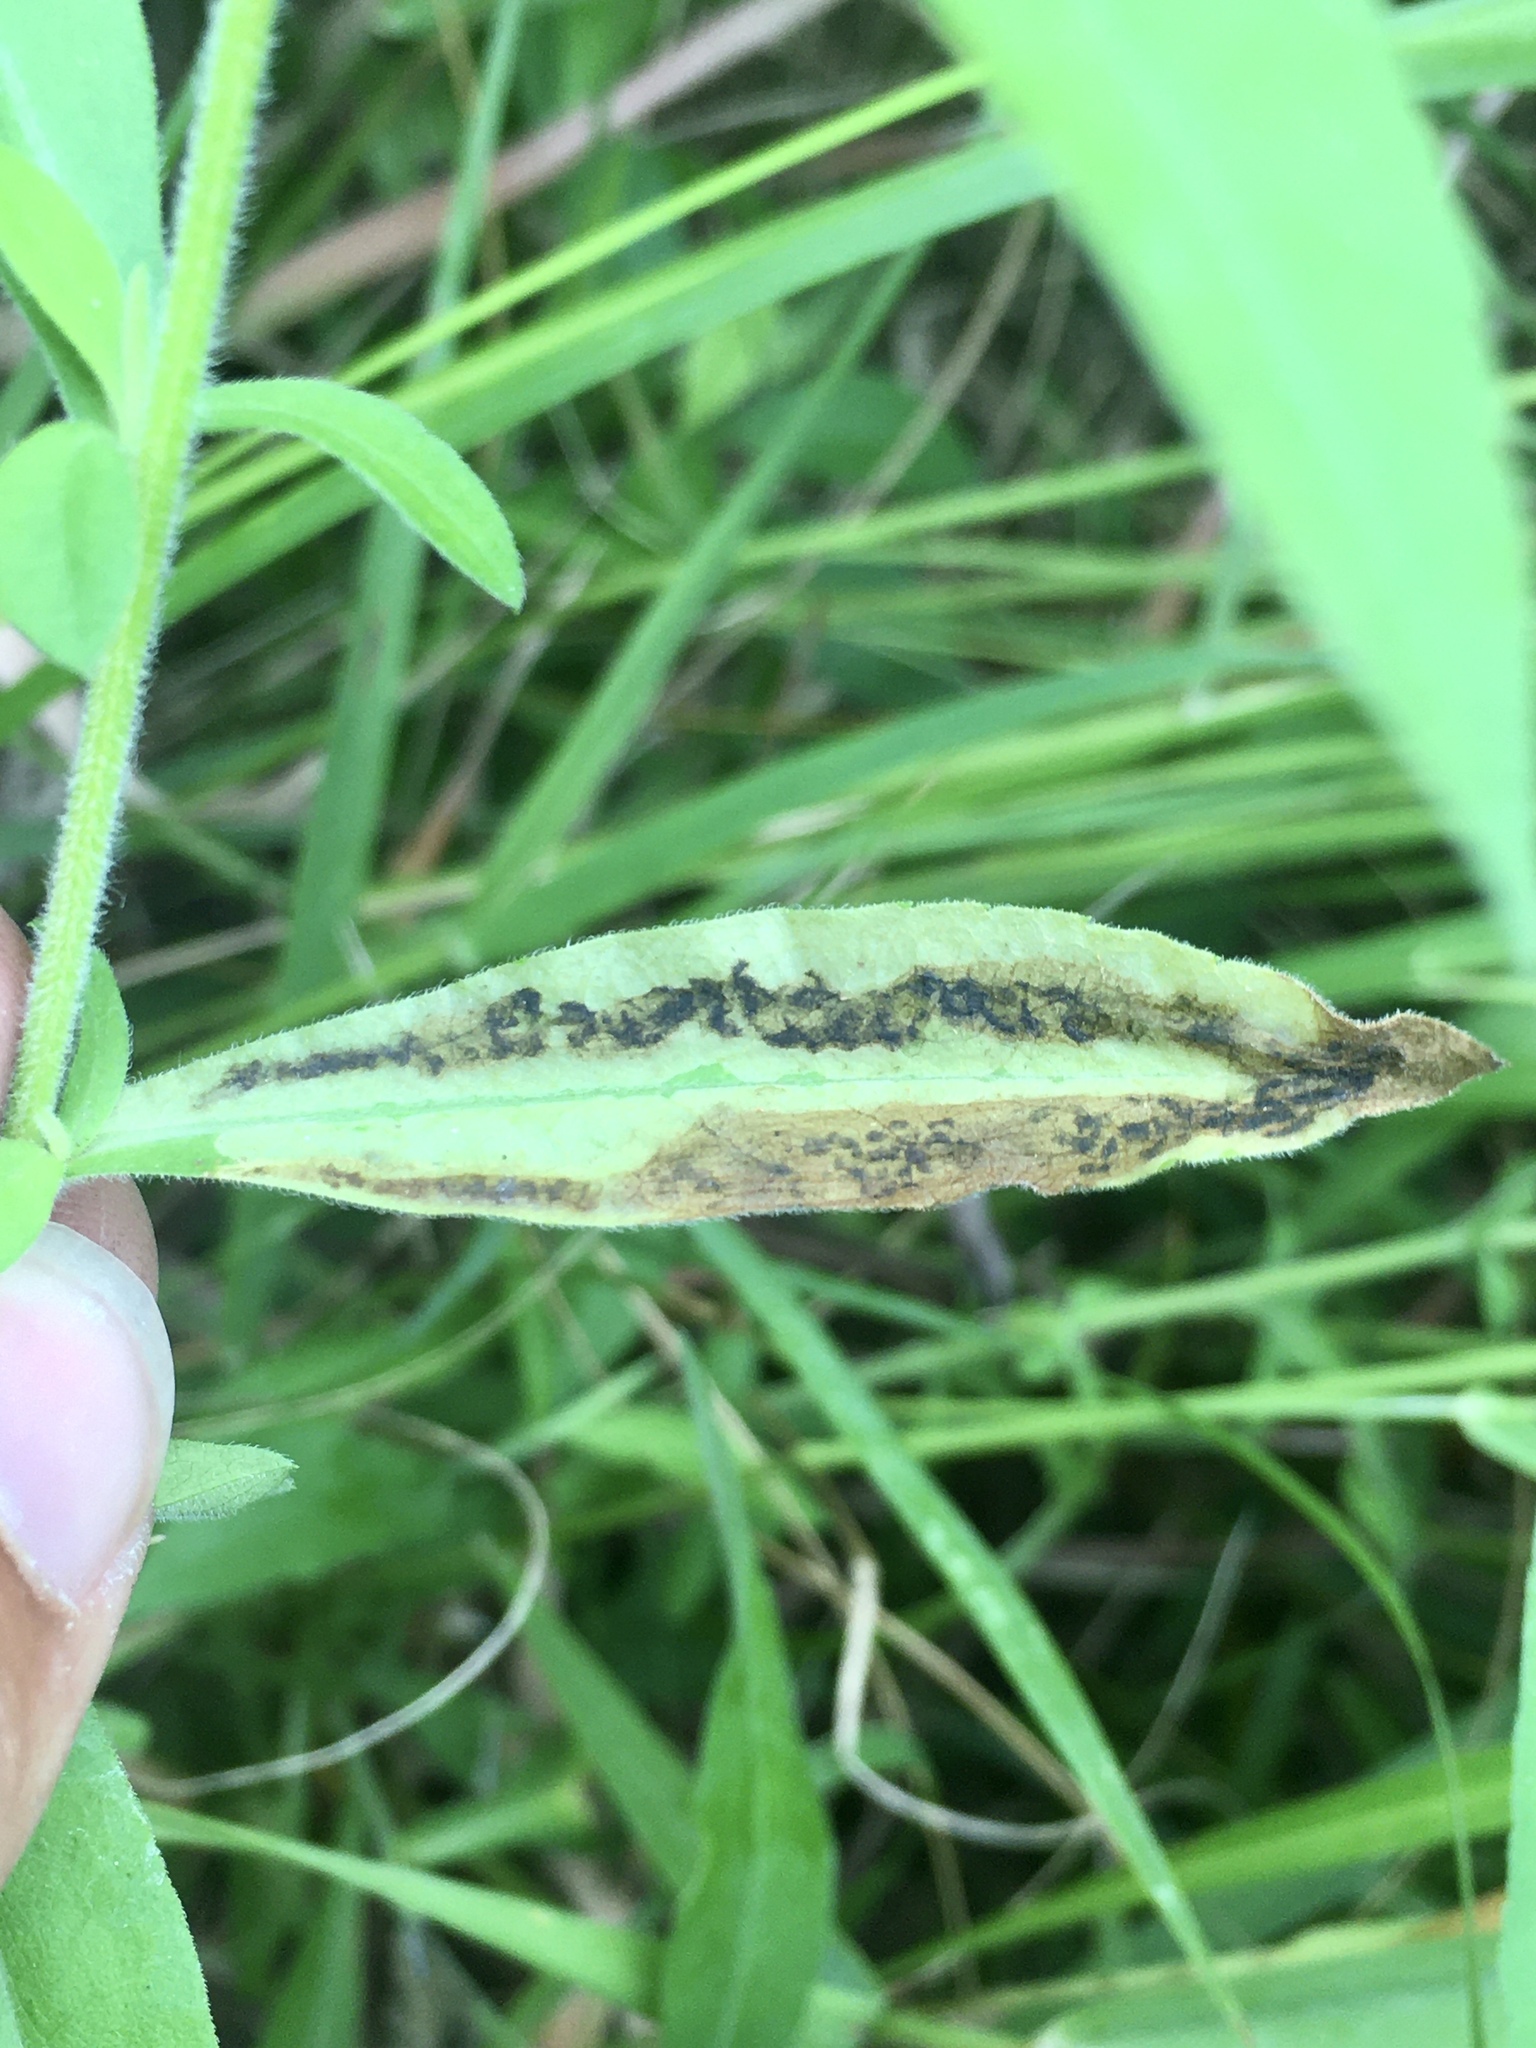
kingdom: Animalia
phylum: Arthropoda
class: Insecta
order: Diptera
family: Agromyzidae
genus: Nemorimyza
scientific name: Nemorimyza posticata
